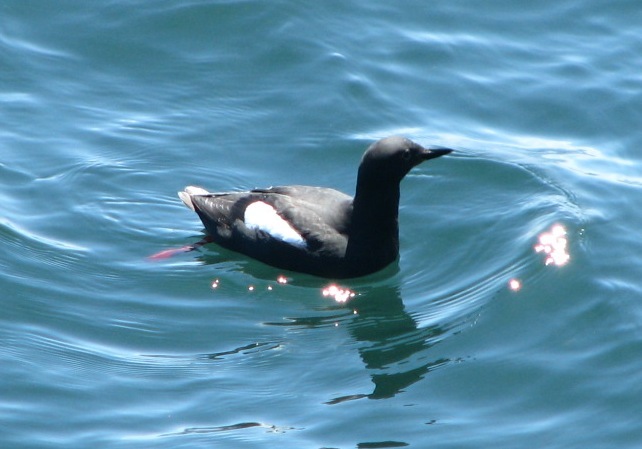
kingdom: Animalia
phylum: Chordata
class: Aves
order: Charadriiformes
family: Alcidae
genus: Cepphus
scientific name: Cepphus columba
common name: Pigeon guillemot
